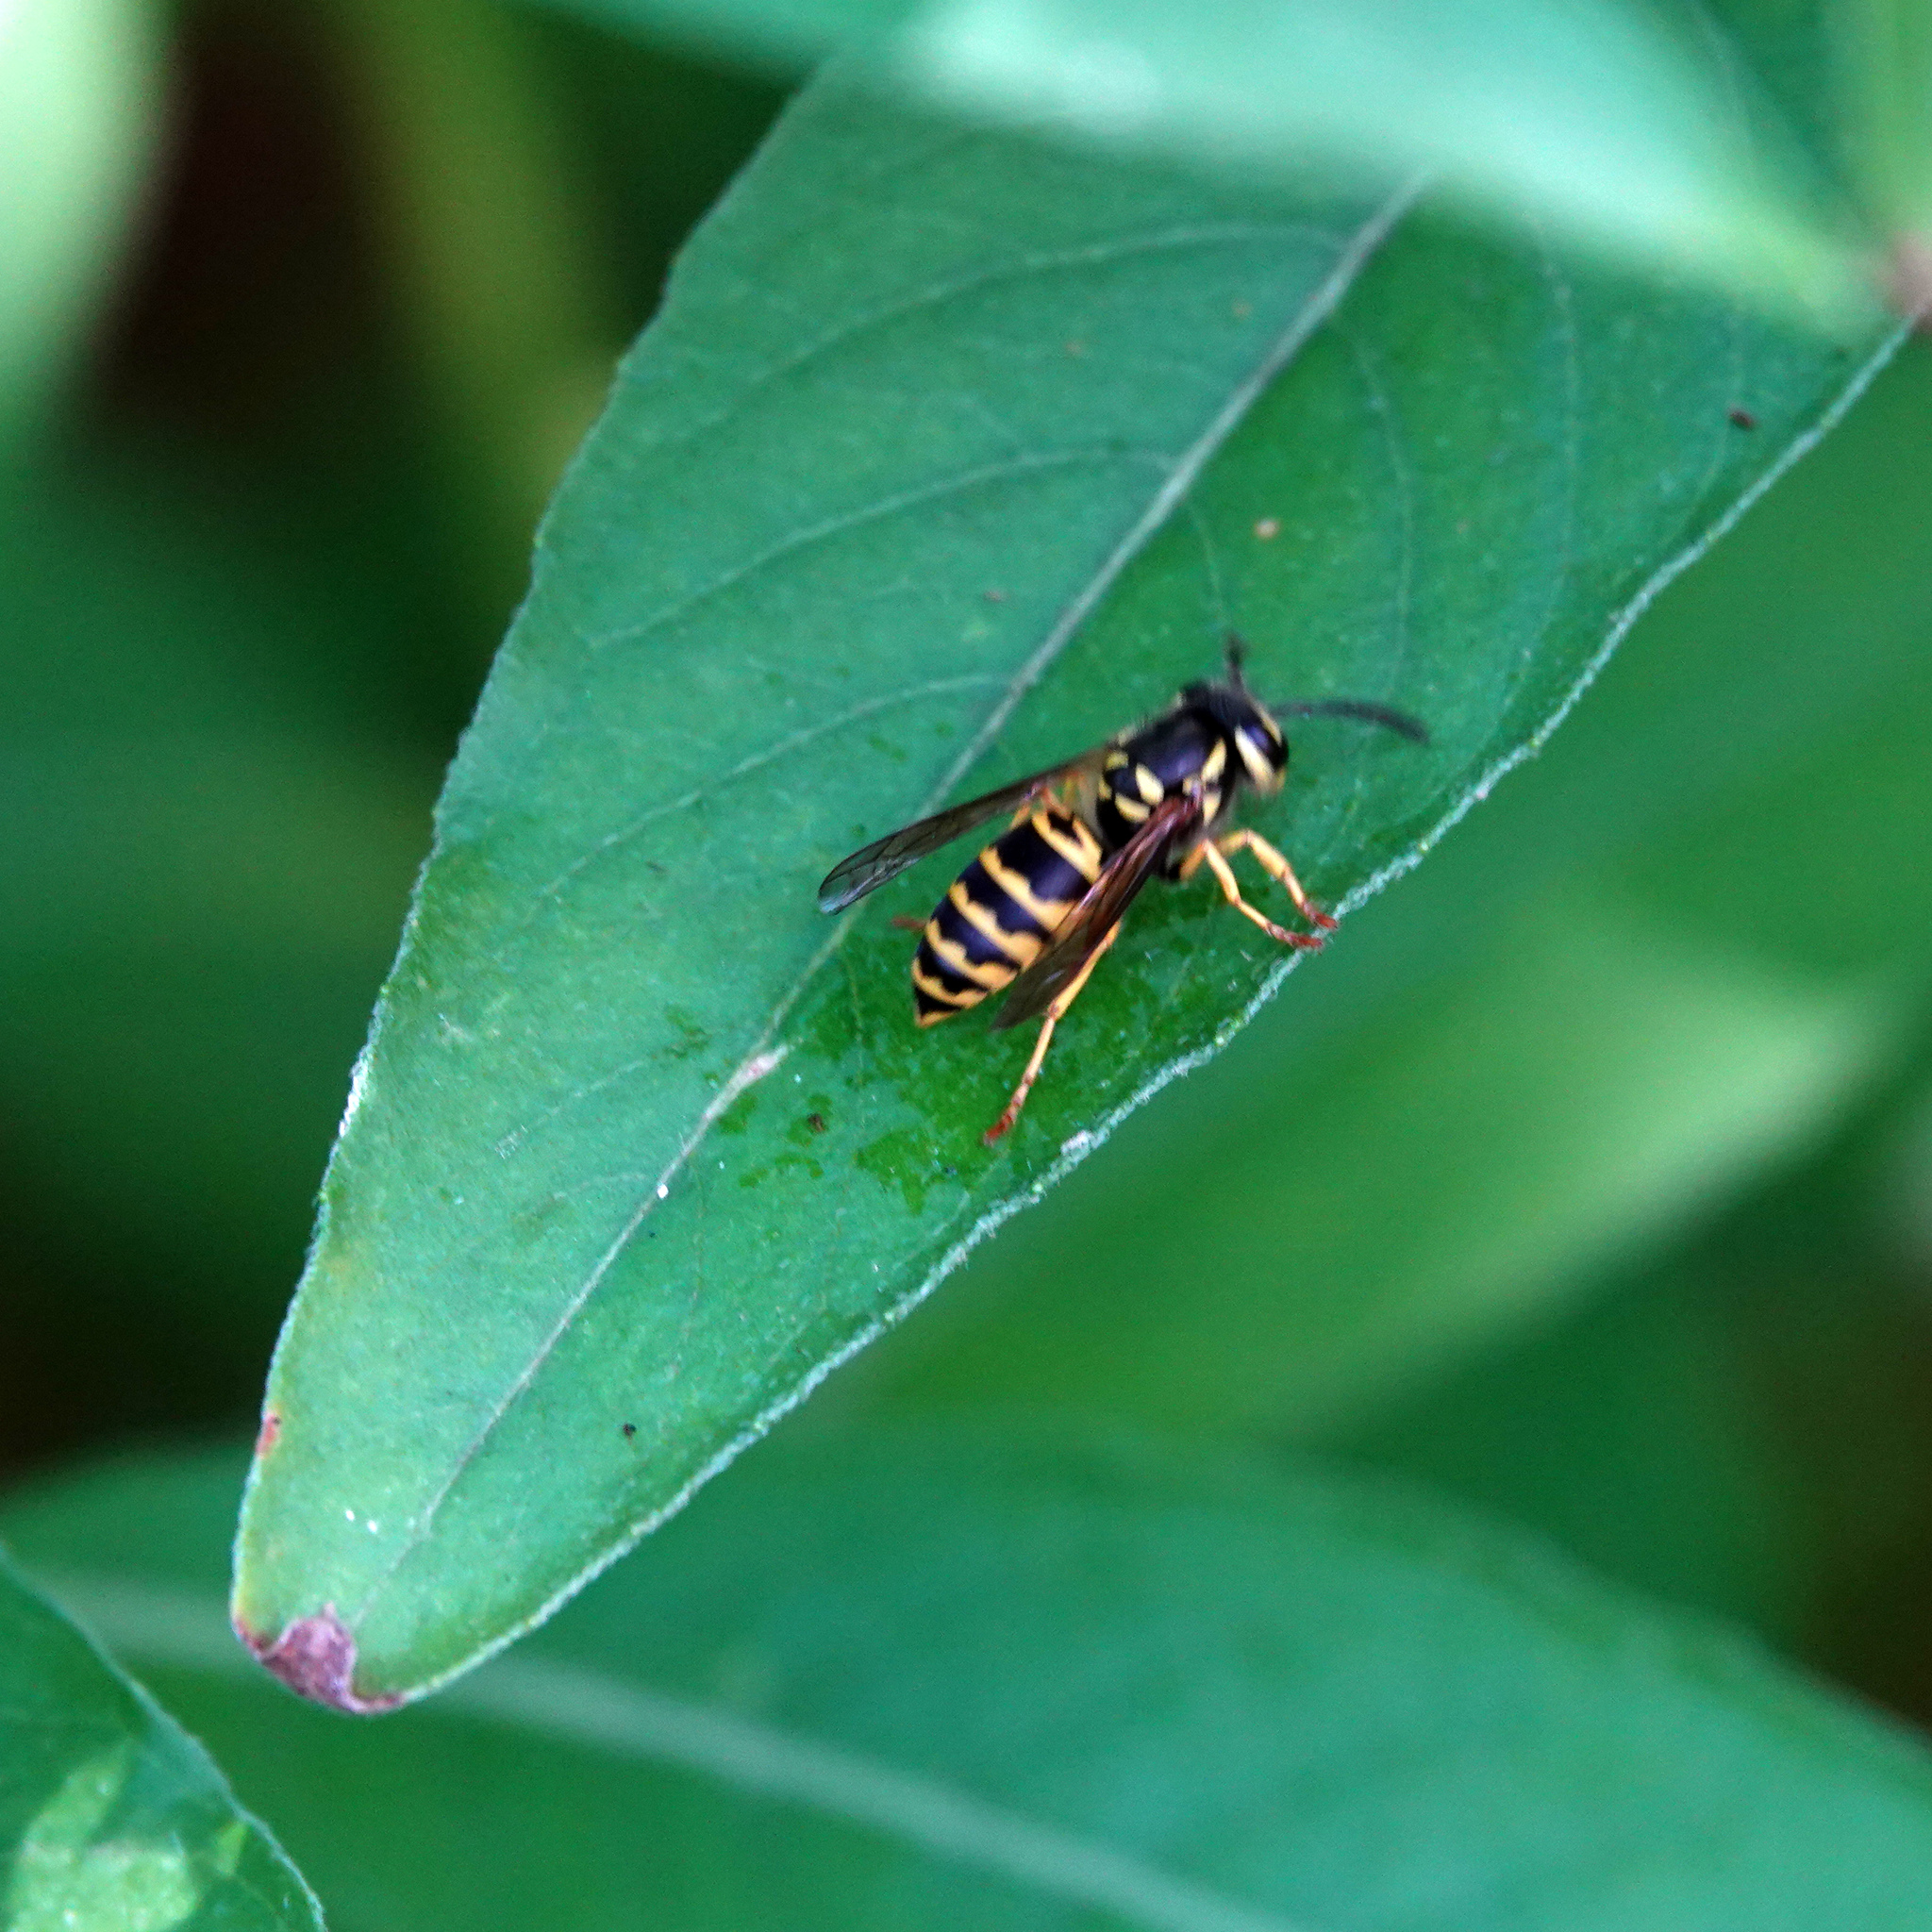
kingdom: Animalia
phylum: Arthropoda
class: Insecta
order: Hymenoptera
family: Vespidae
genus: Vespula
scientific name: Vespula maculifrons
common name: Eastern yellowjacket
